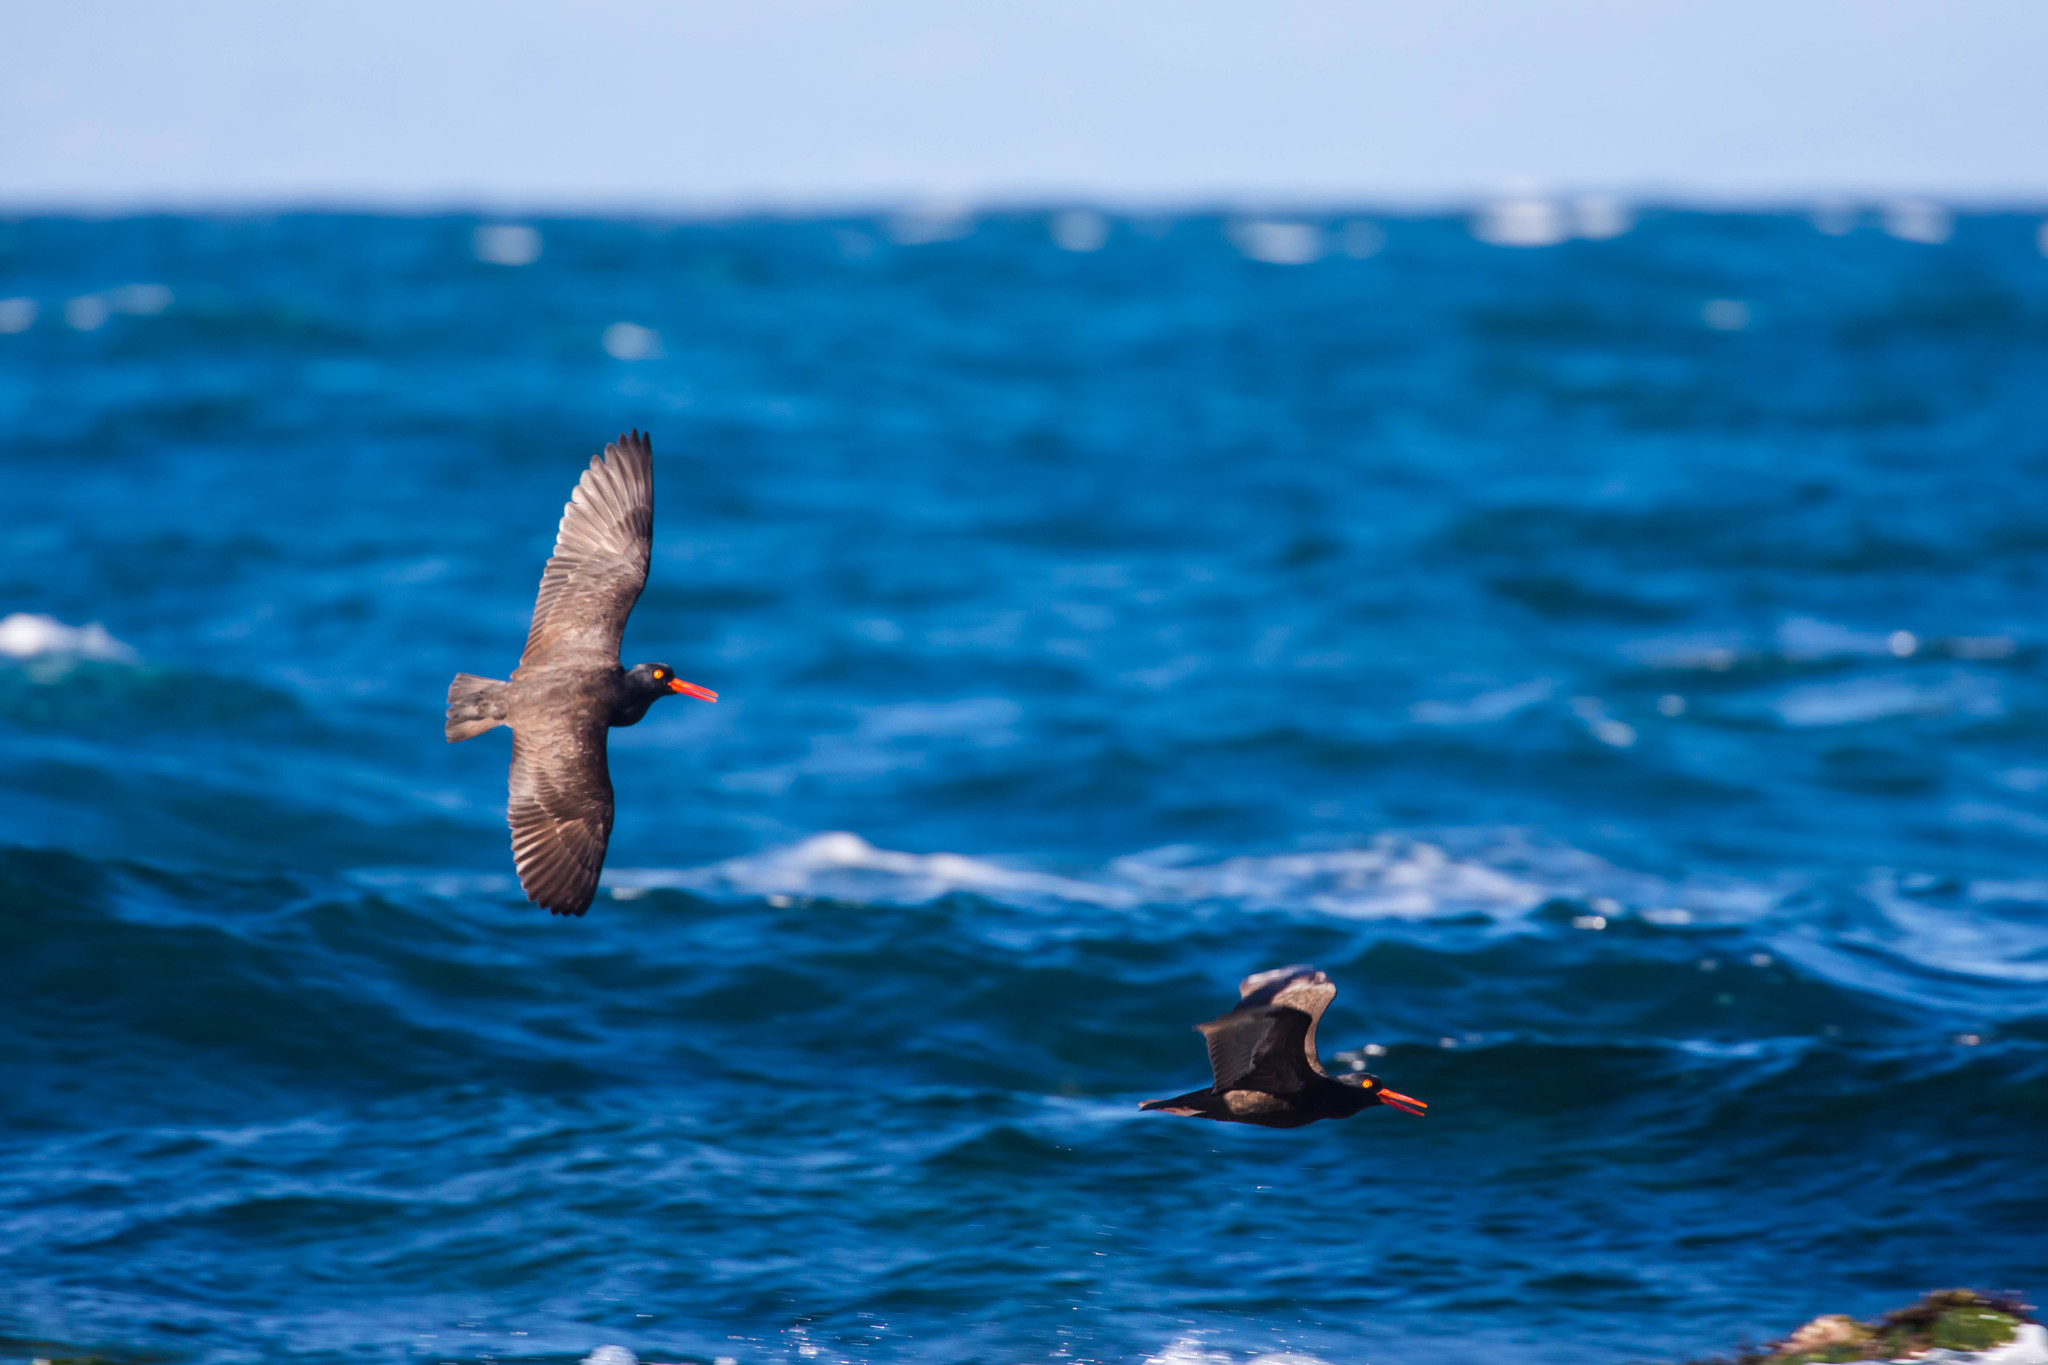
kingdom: Animalia
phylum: Chordata
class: Aves
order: Charadriiformes
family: Haematopodidae
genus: Haematopus
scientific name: Haematopus bachmani
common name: Black oystercatcher
